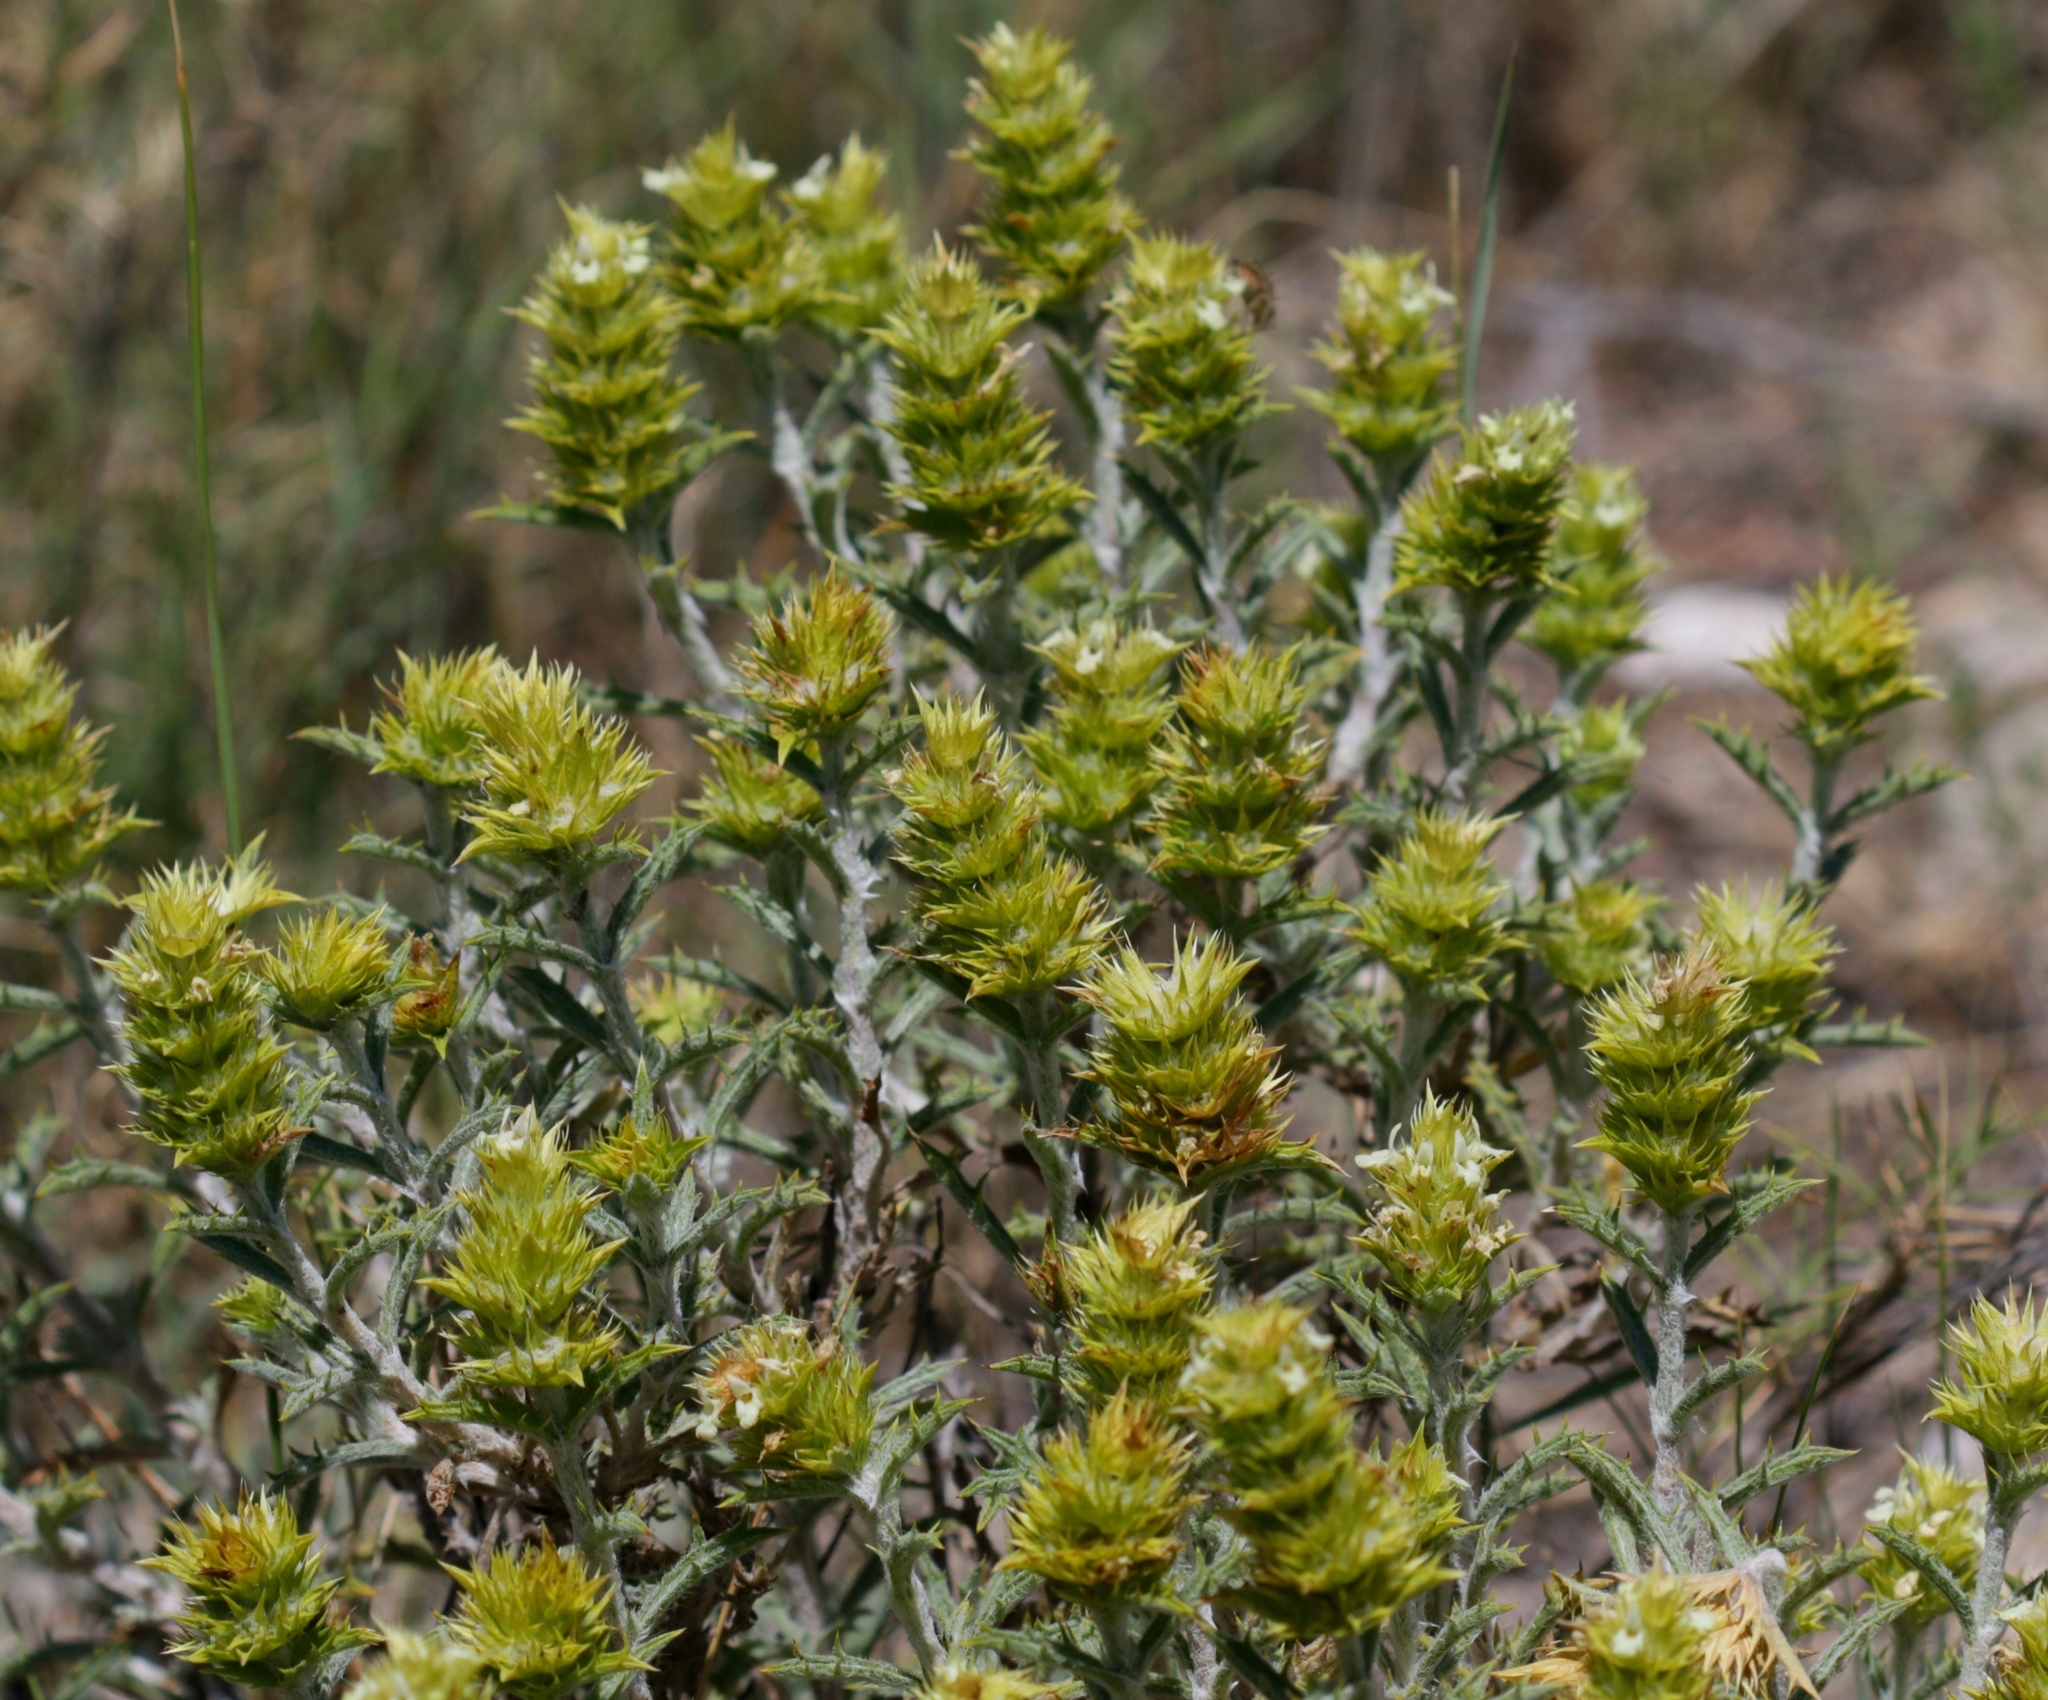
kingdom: Plantae
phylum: Tracheophyta
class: Magnoliopsida
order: Lamiales
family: Lamiaceae
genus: Sideritis
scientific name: Sideritis spinulosa
